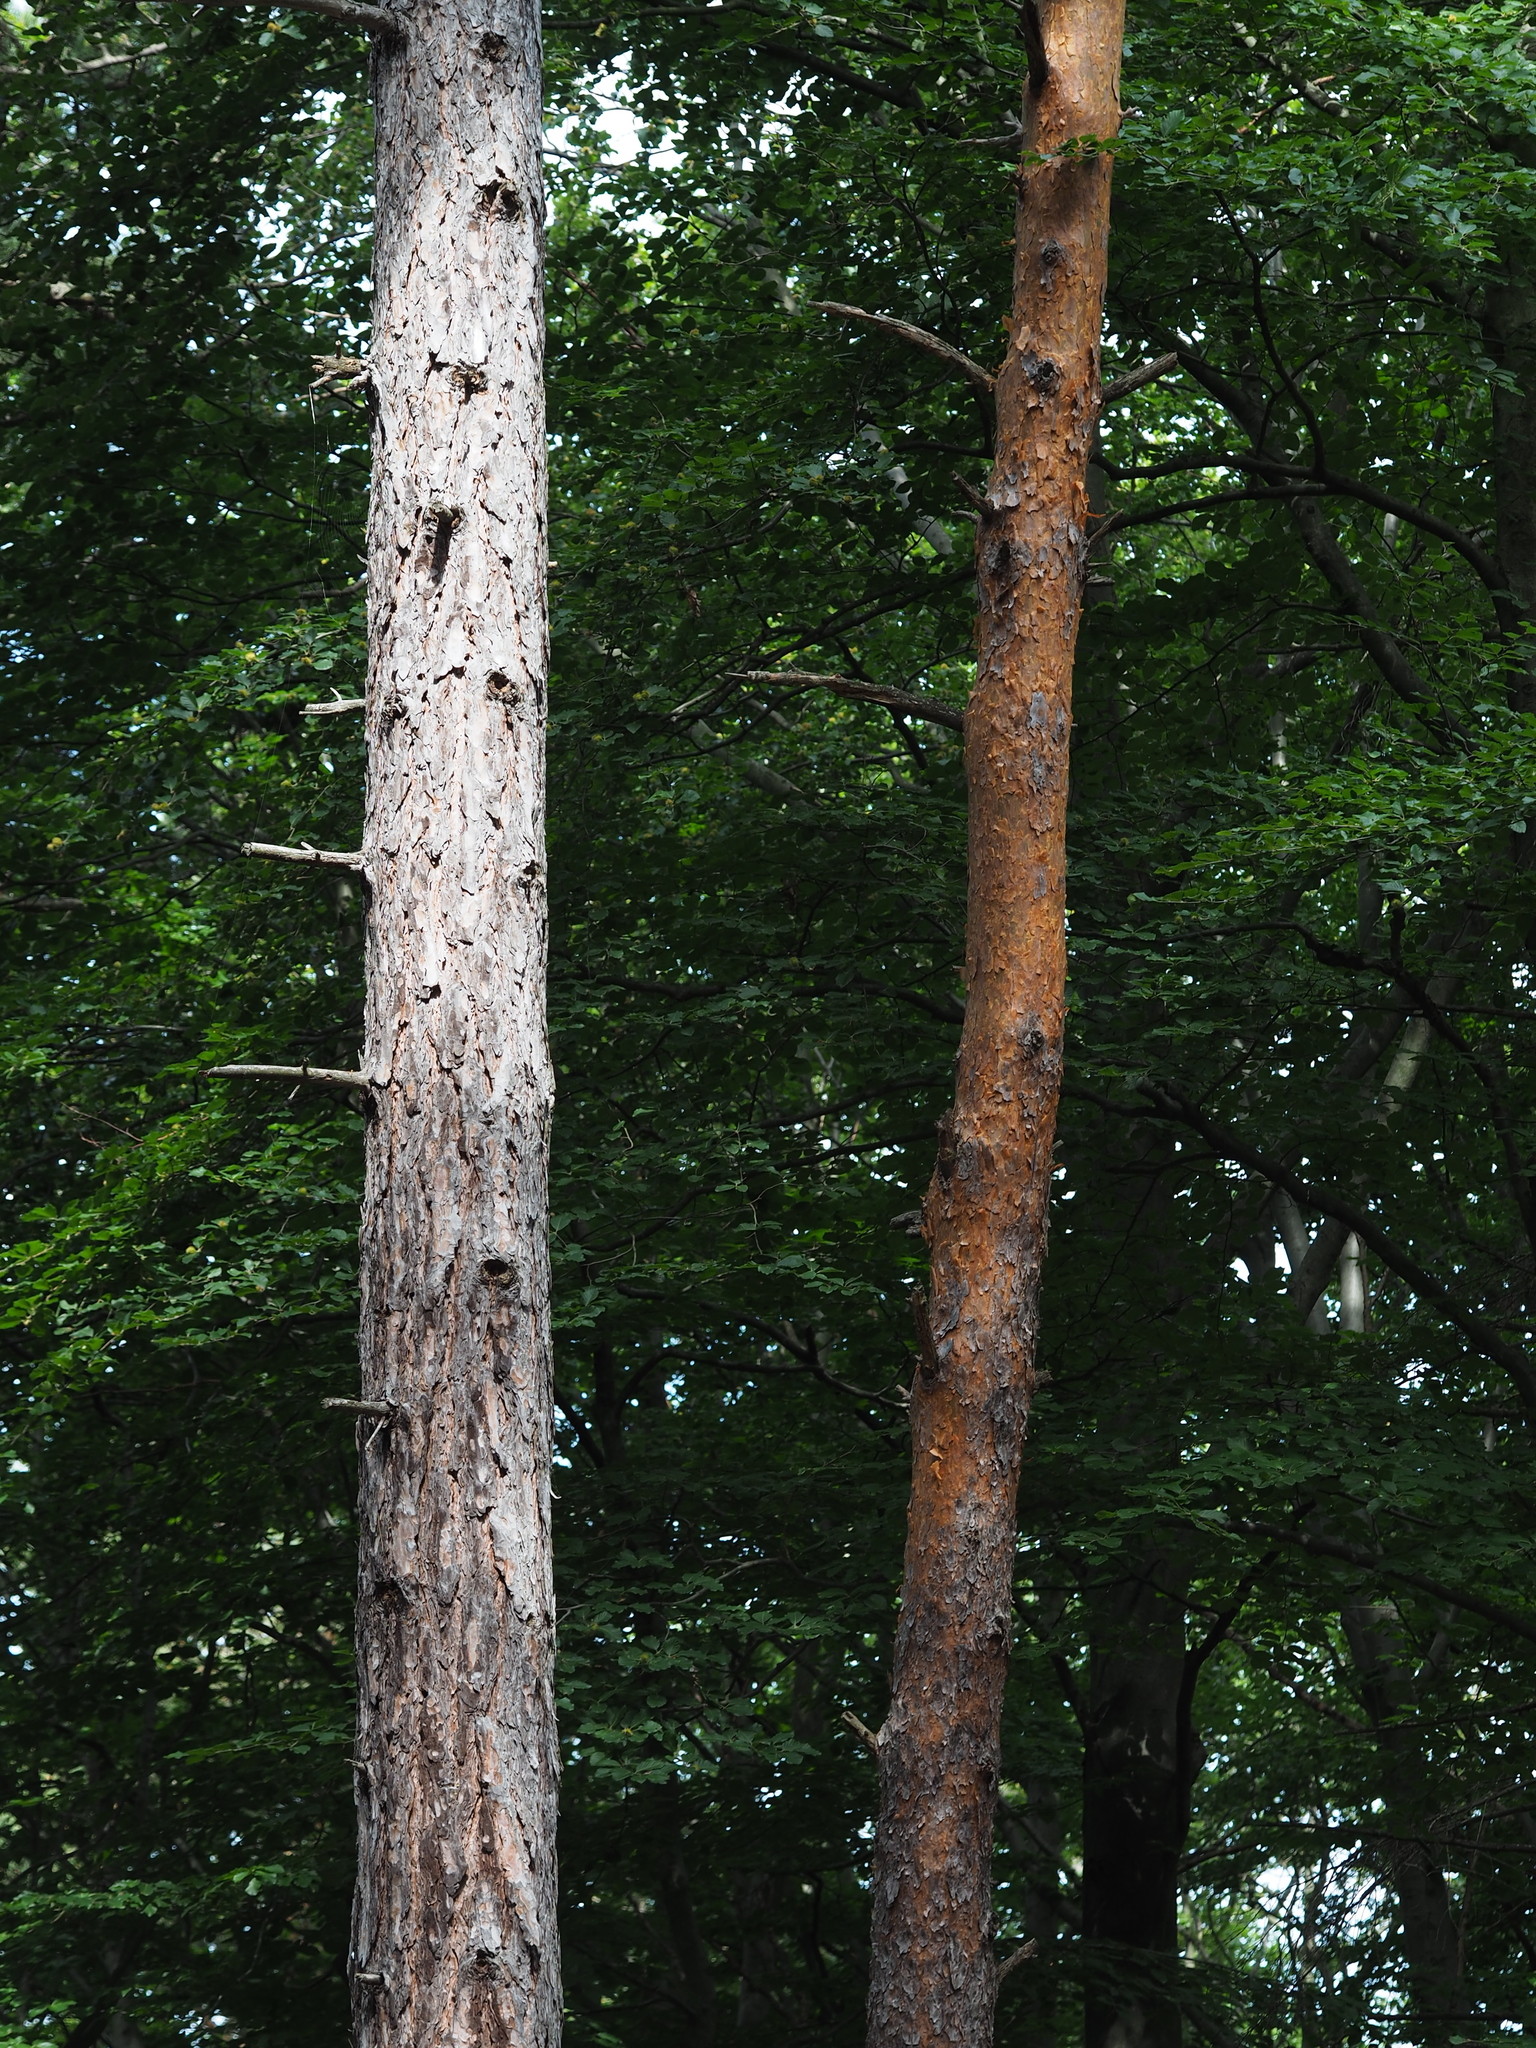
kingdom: Plantae
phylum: Tracheophyta
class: Pinopsida
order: Pinales
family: Pinaceae
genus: Pinus
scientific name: Pinus sylvestris
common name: Scots pine
